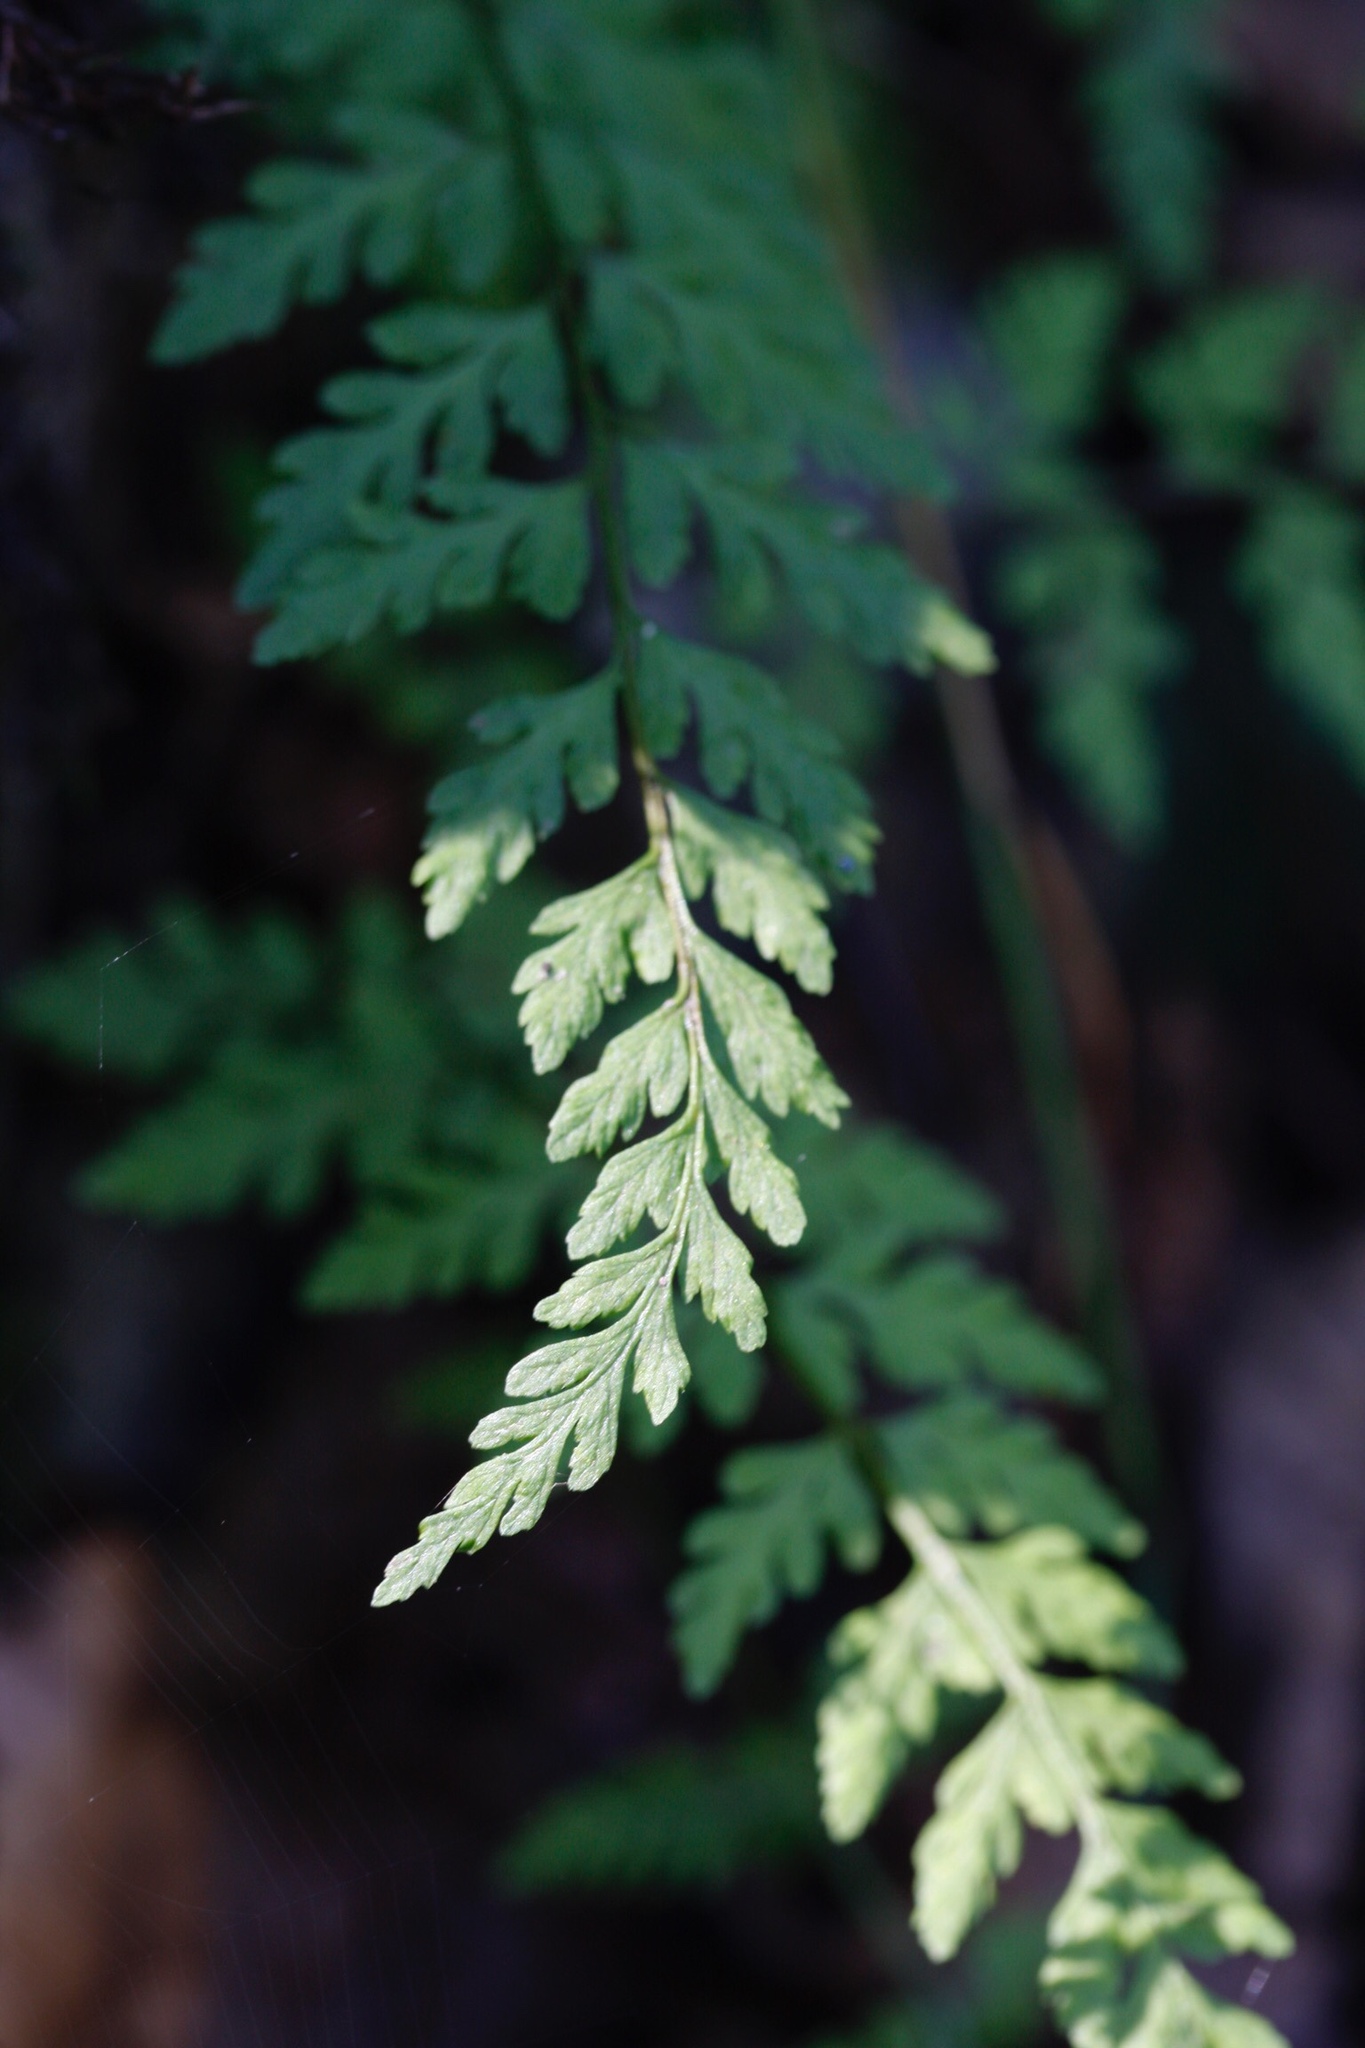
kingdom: Plantae
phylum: Tracheophyta
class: Polypodiopsida
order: Polypodiales
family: Cystopteridaceae
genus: Cystopteris
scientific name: Cystopteris fragilis
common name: Brittle bladder fern
